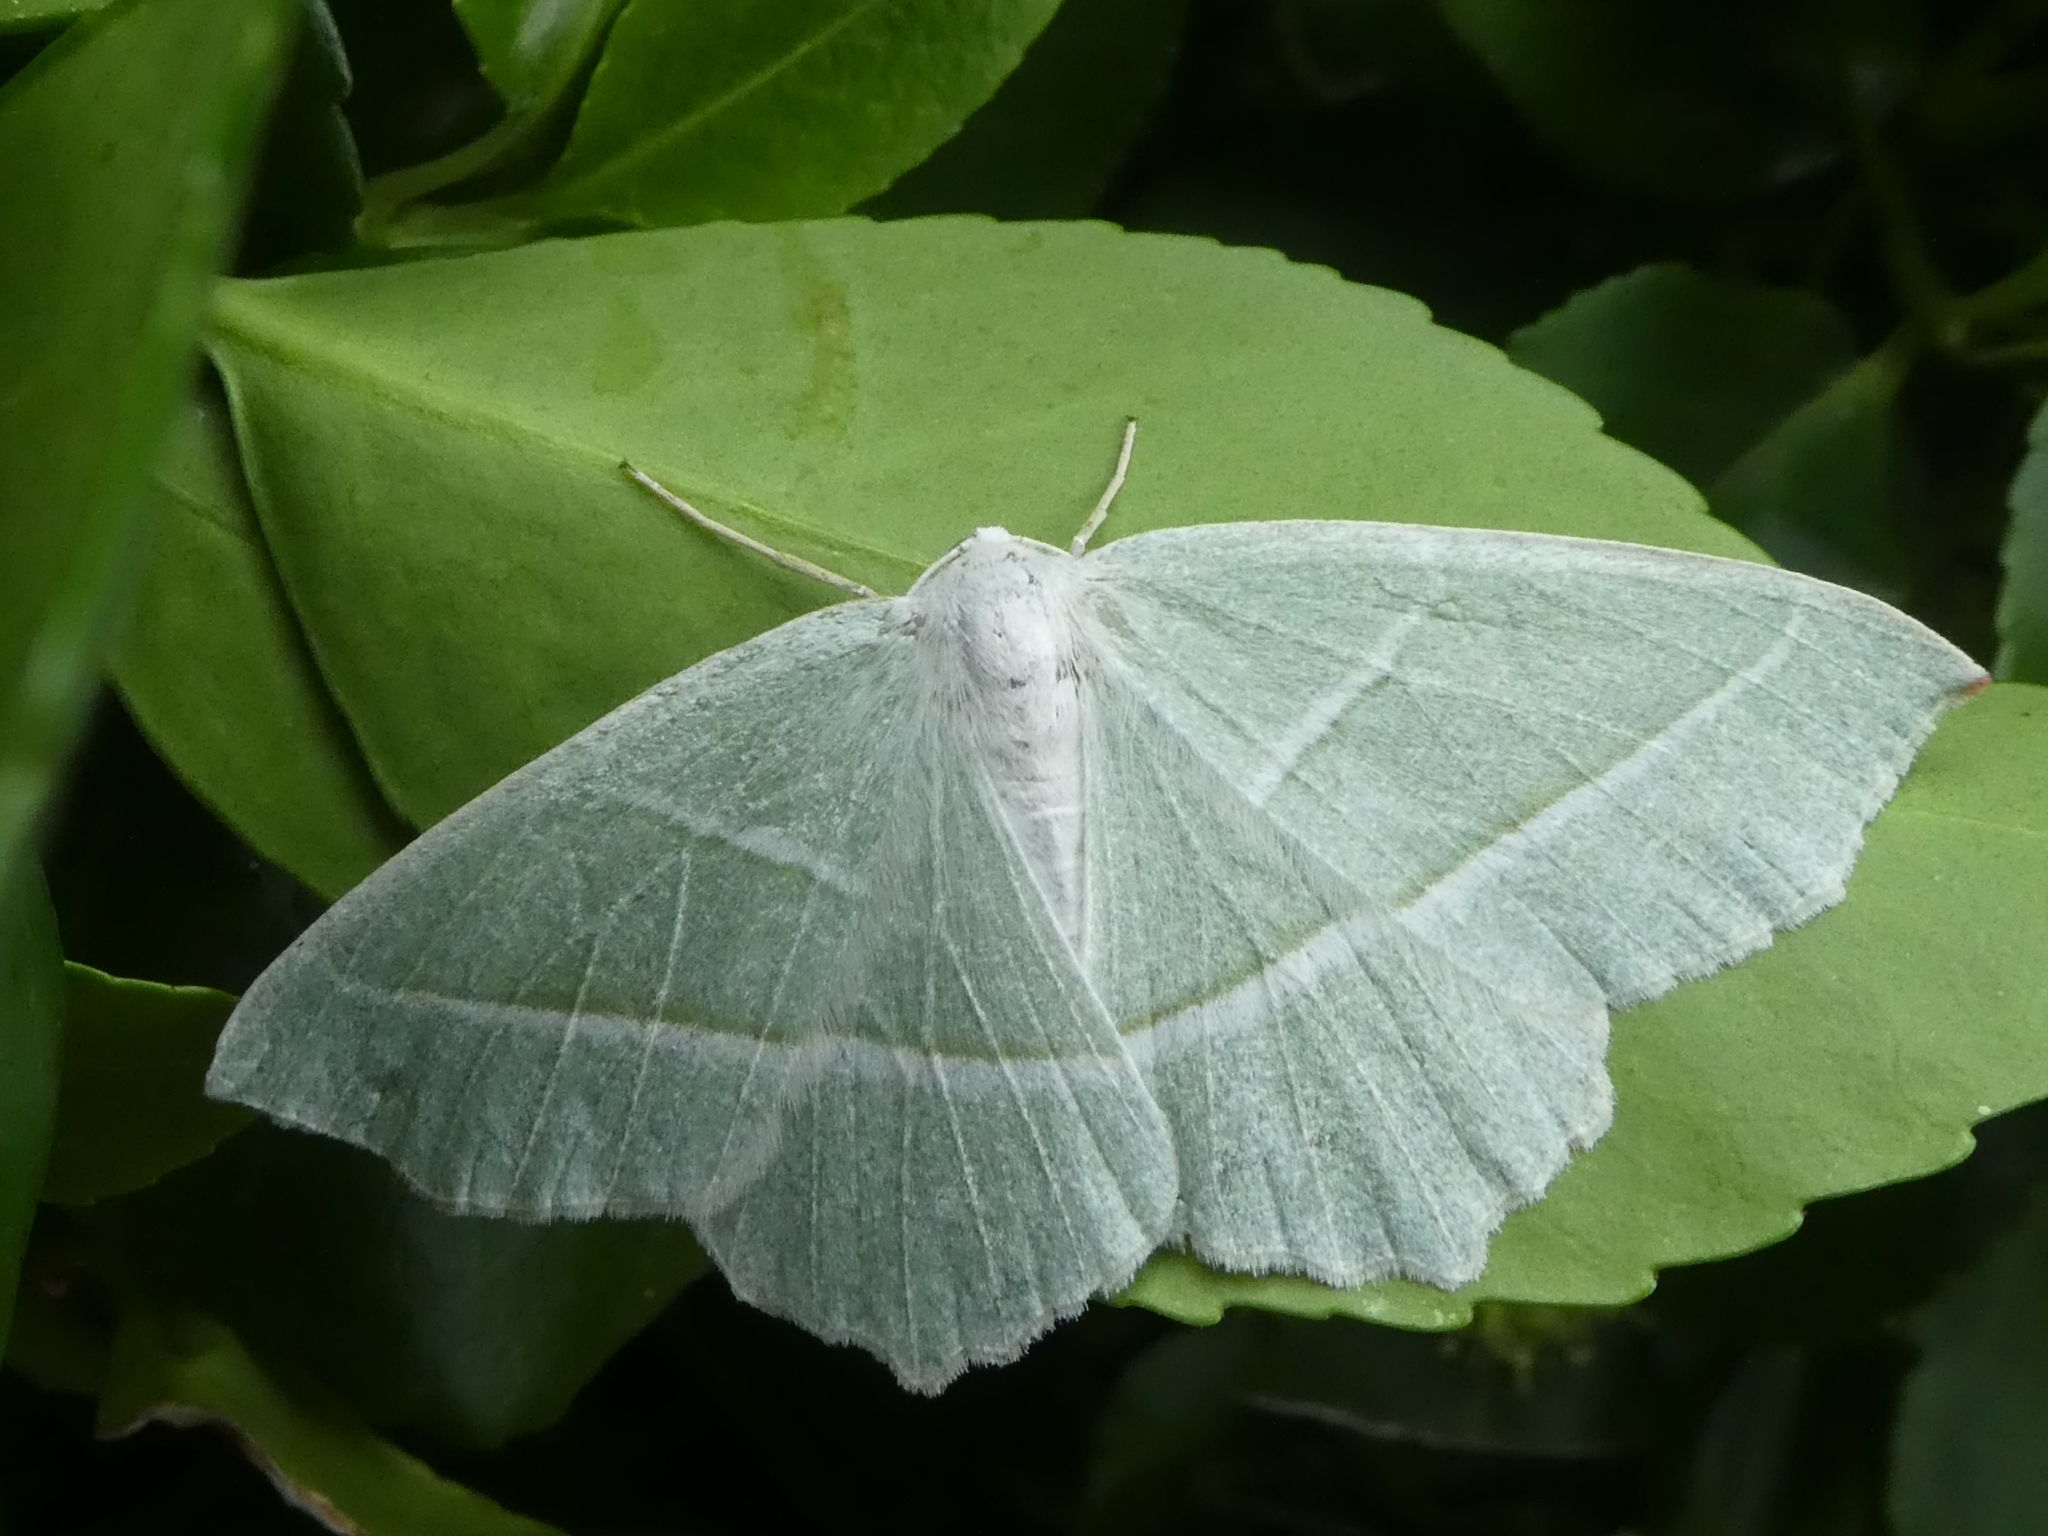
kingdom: Animalia
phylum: Arthropoda
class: Insecta
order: Lepidoptera
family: Geometridae
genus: Campaea
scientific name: Campaea margaritaria
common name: Light emerald
